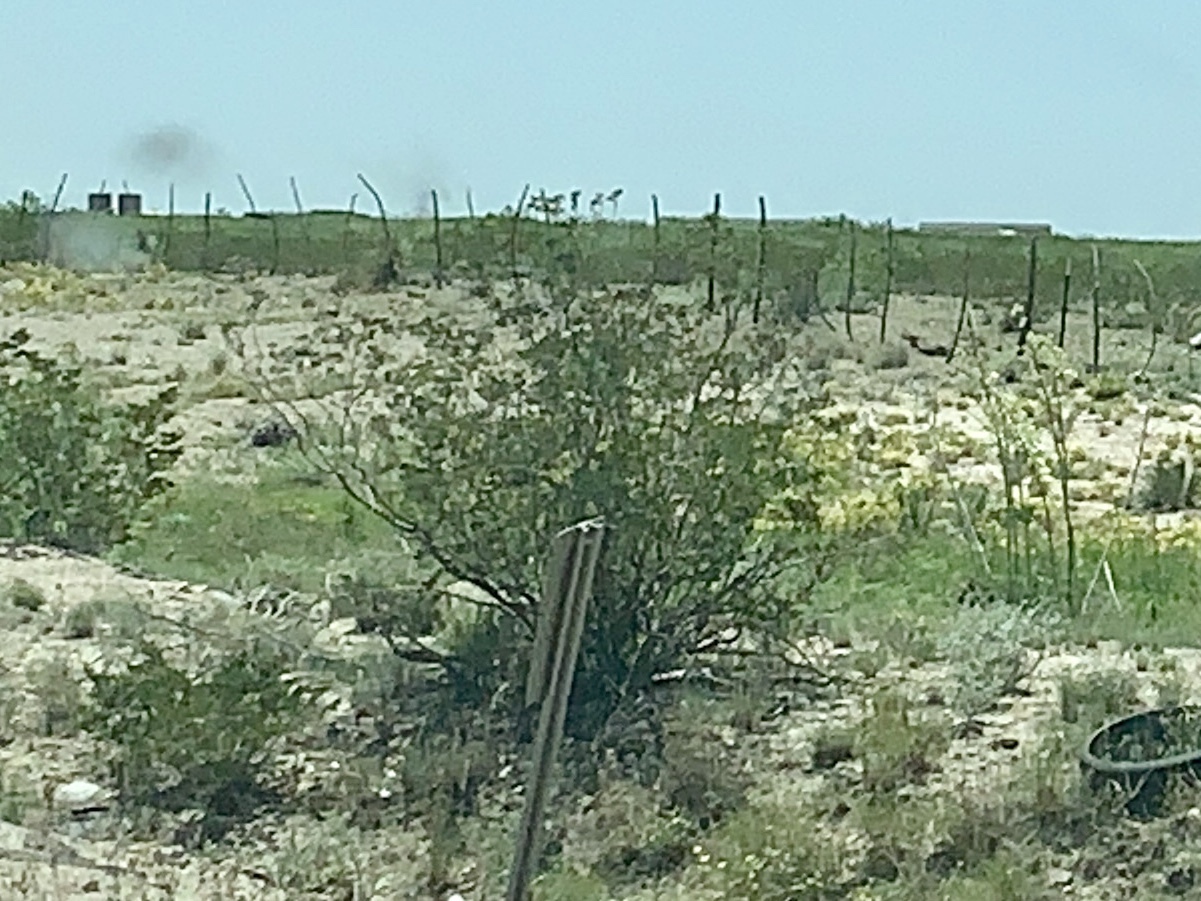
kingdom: Plantae
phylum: Tracheophyta
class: Magnoliopsida
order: Zygophyllales
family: Zygophyllaceae
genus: Larrea
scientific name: Larrea tridentata
